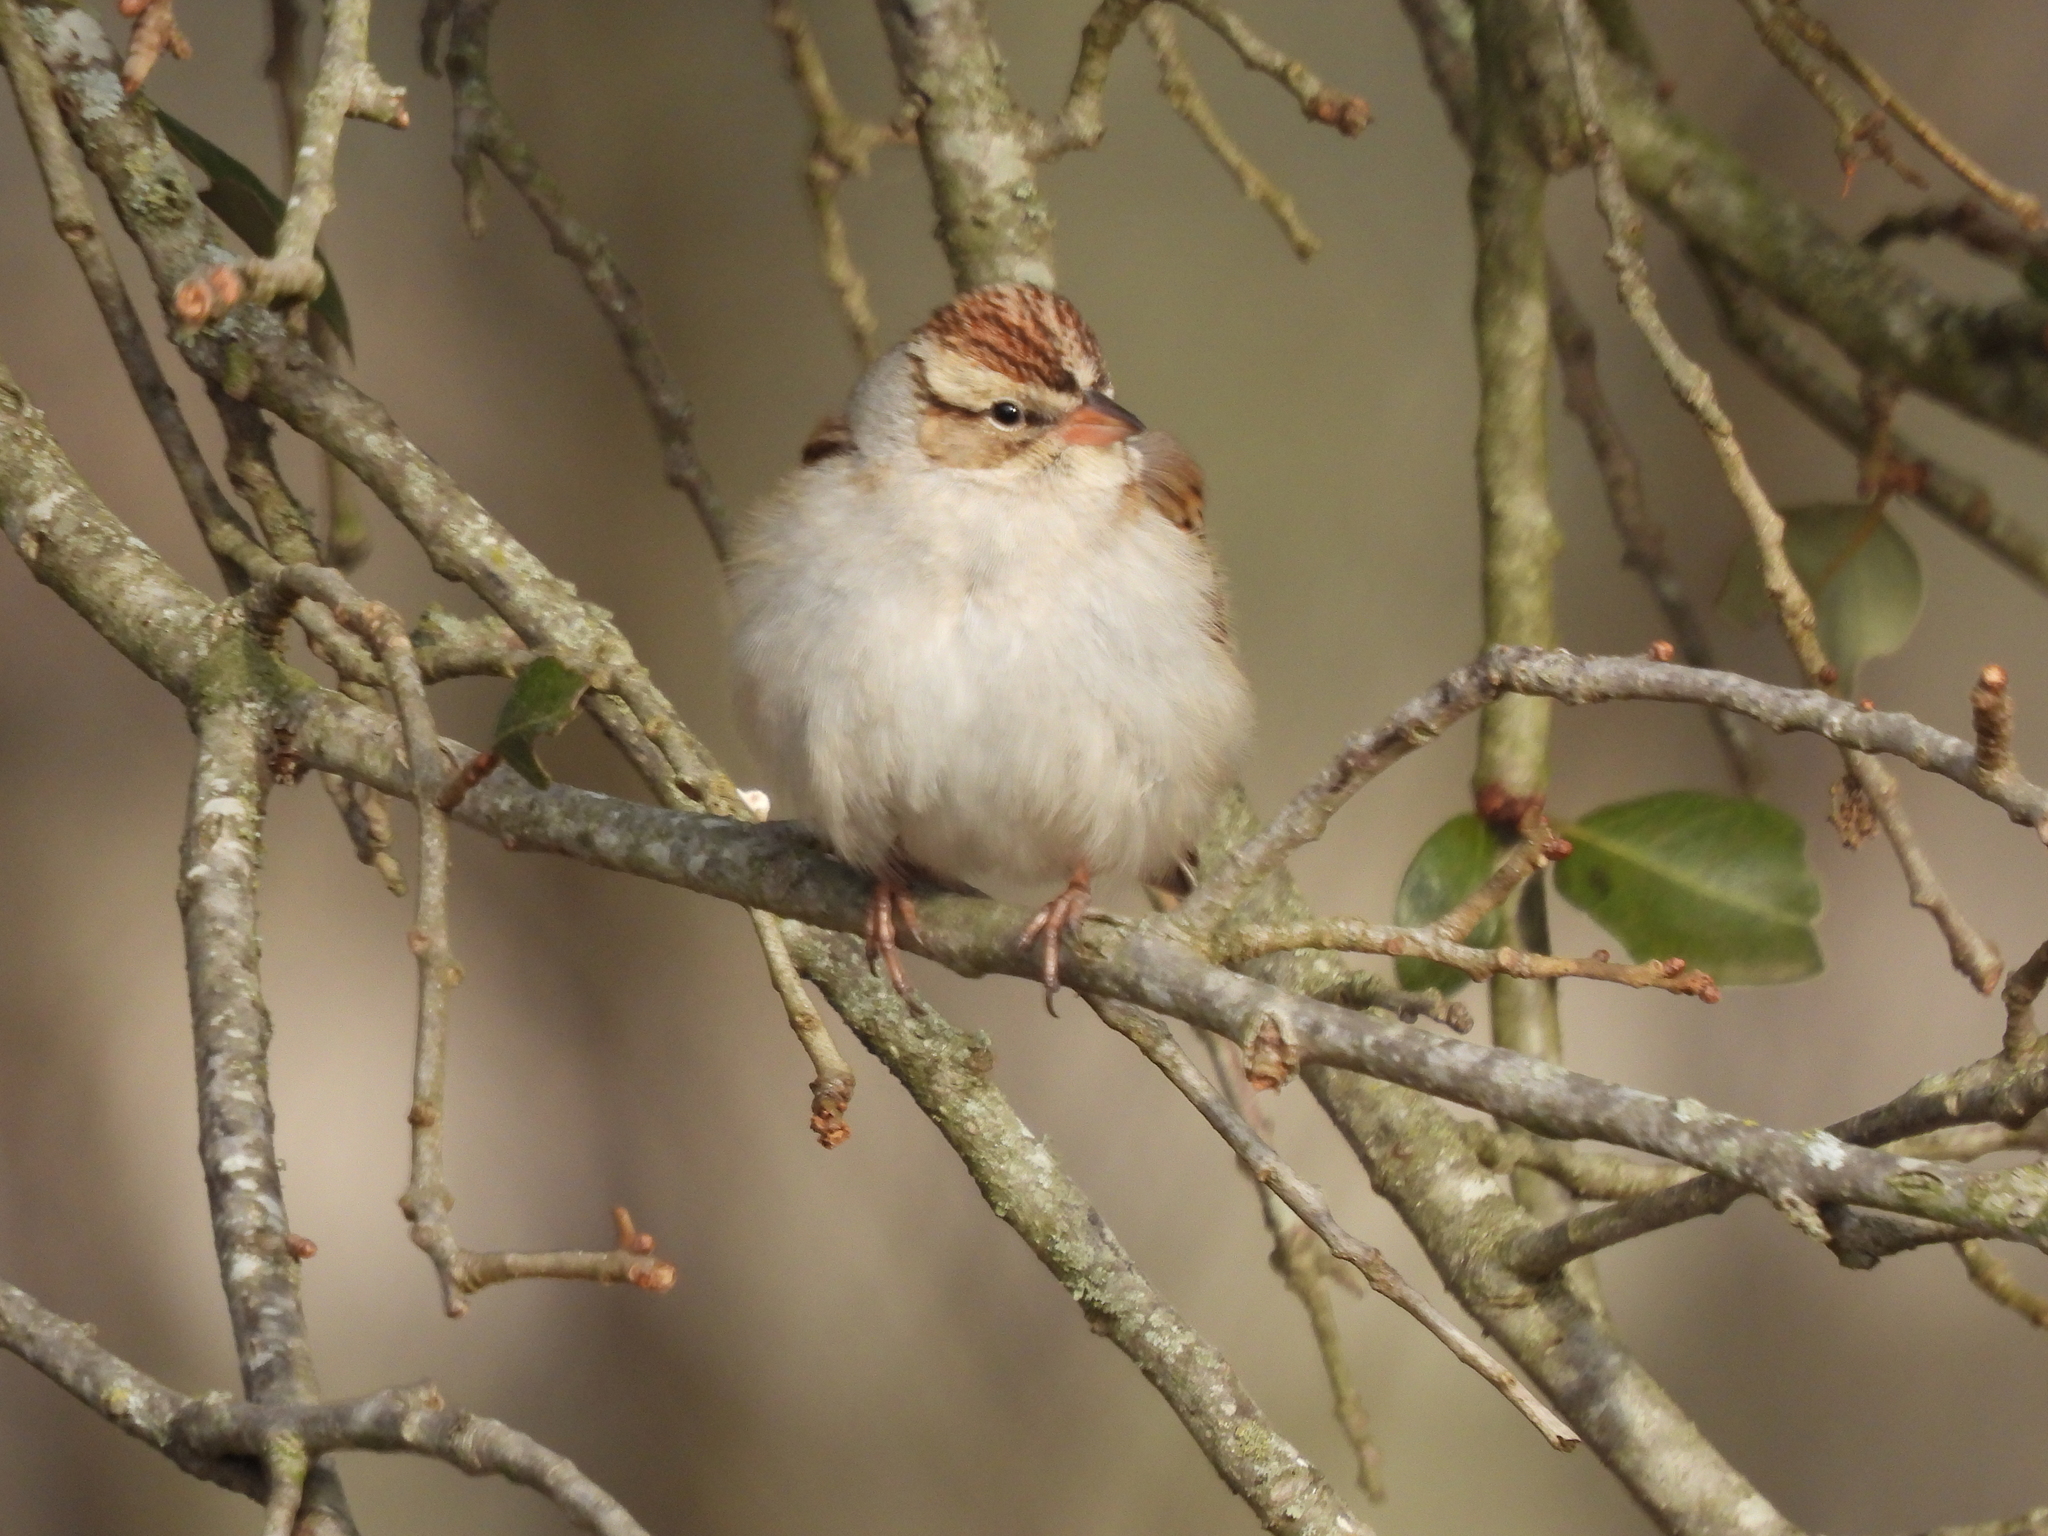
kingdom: Animalia
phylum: Chordata
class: Aves
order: Passeriformes
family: Passerellidae
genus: Spizella
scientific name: Spizella passerina
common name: Chipping sparrow
